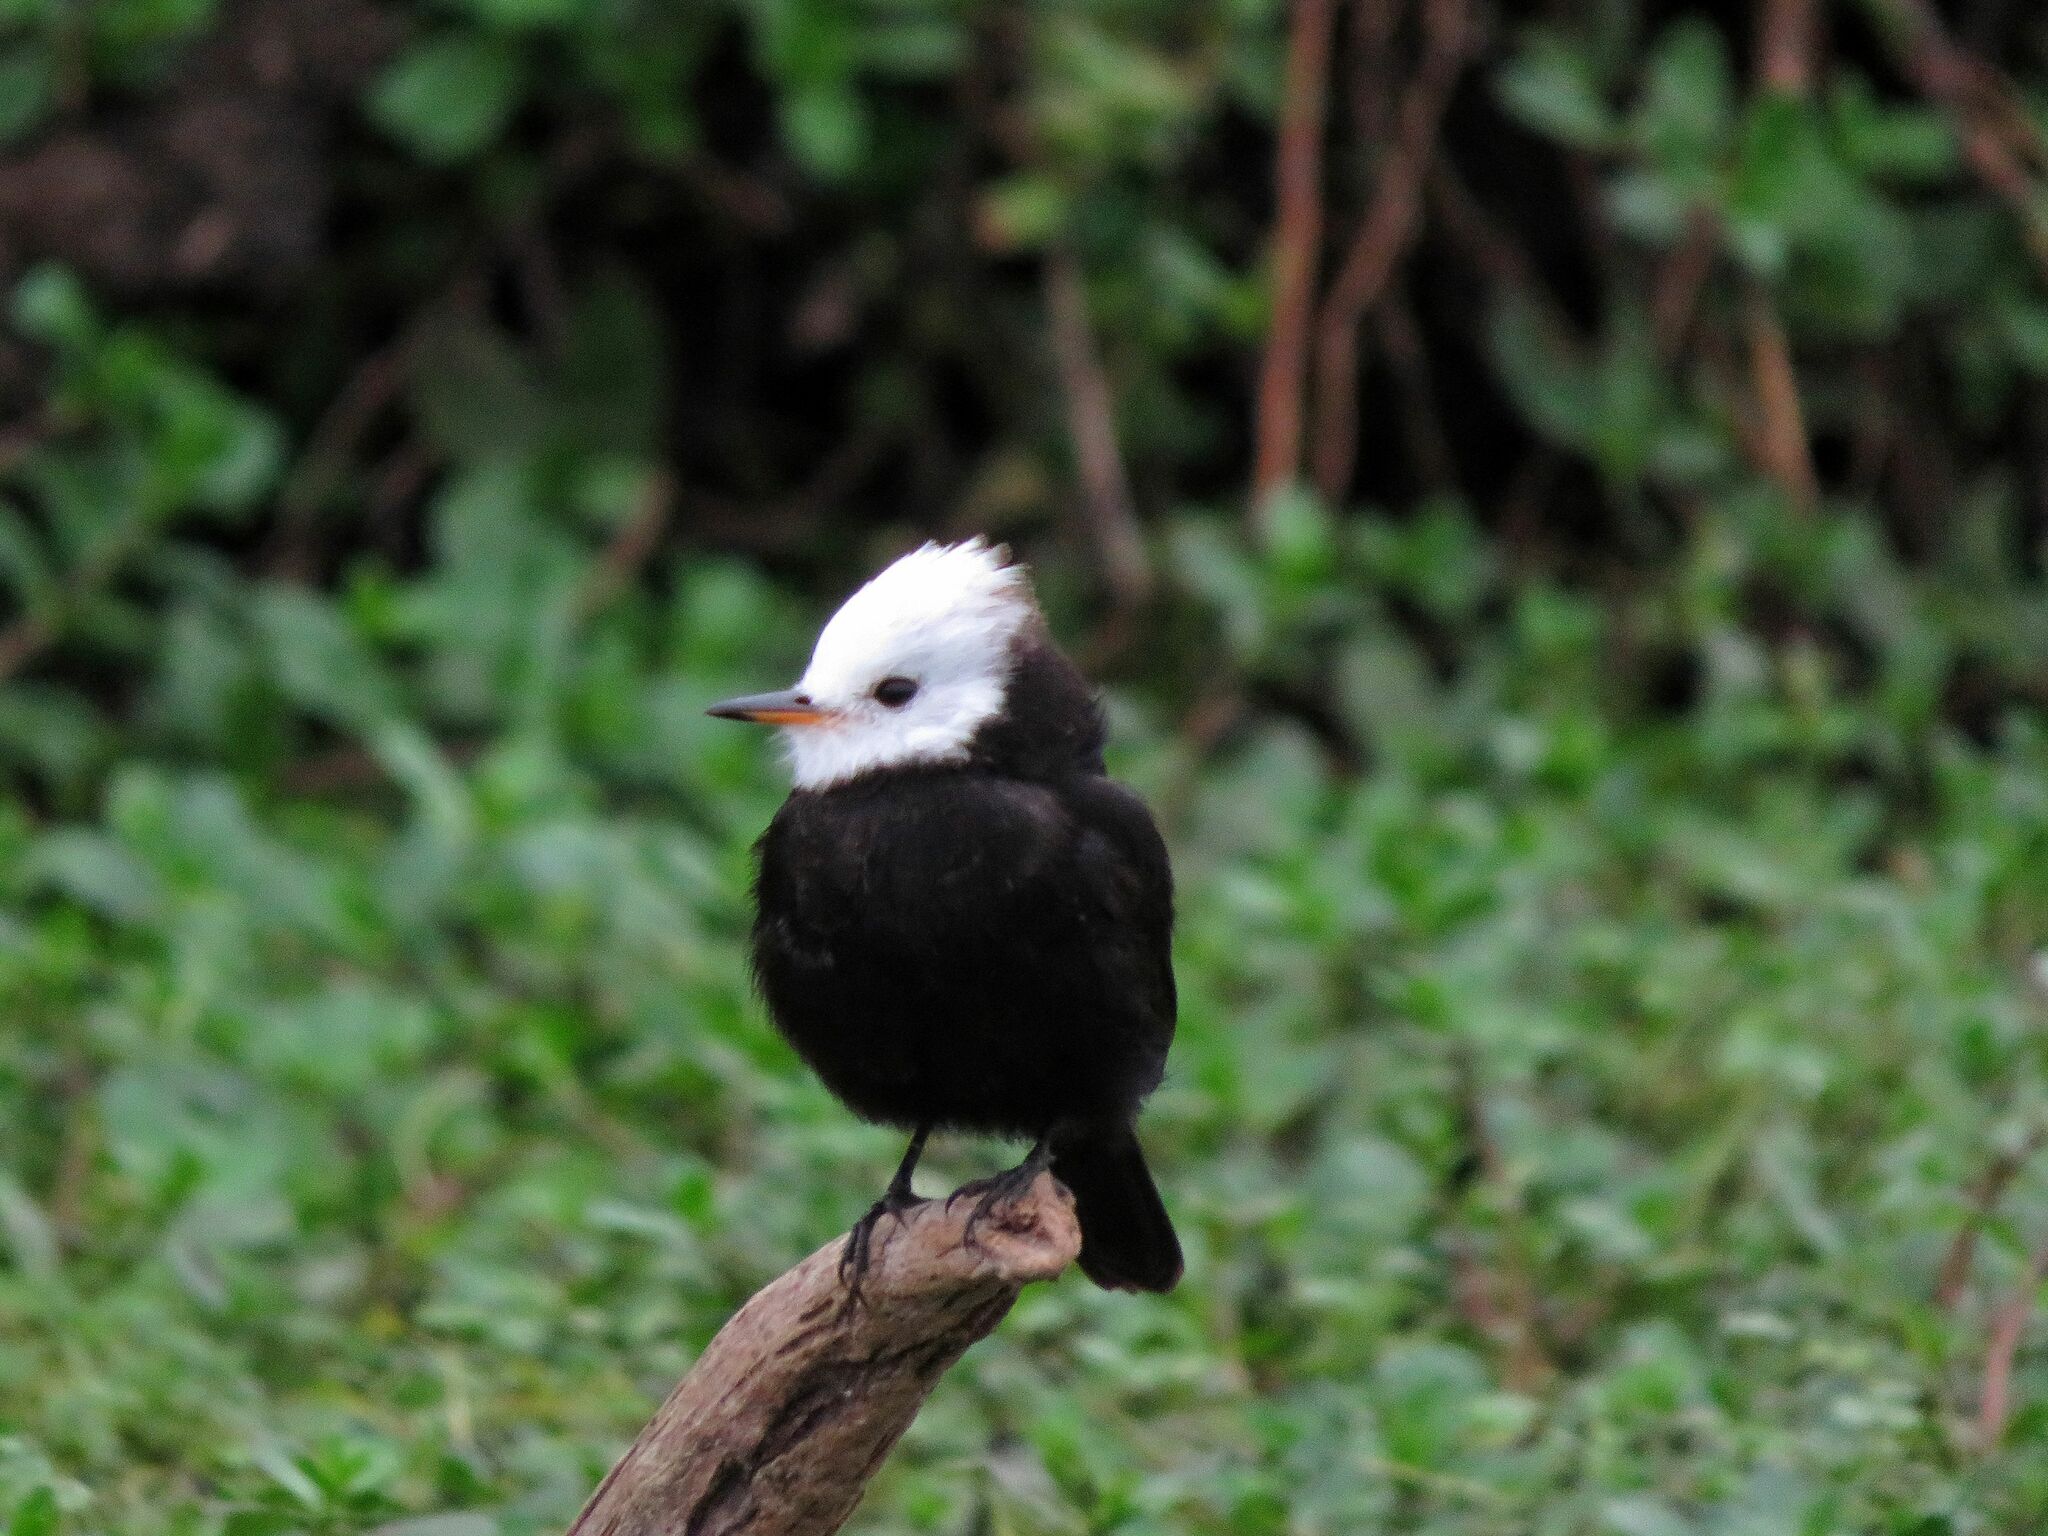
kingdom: Animalia
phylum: Chordata
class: Aves
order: Passeriformes
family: Tyrannidae
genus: Arundinicola
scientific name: Arundinicola leucocephala
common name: White-headed marsh tyrant
